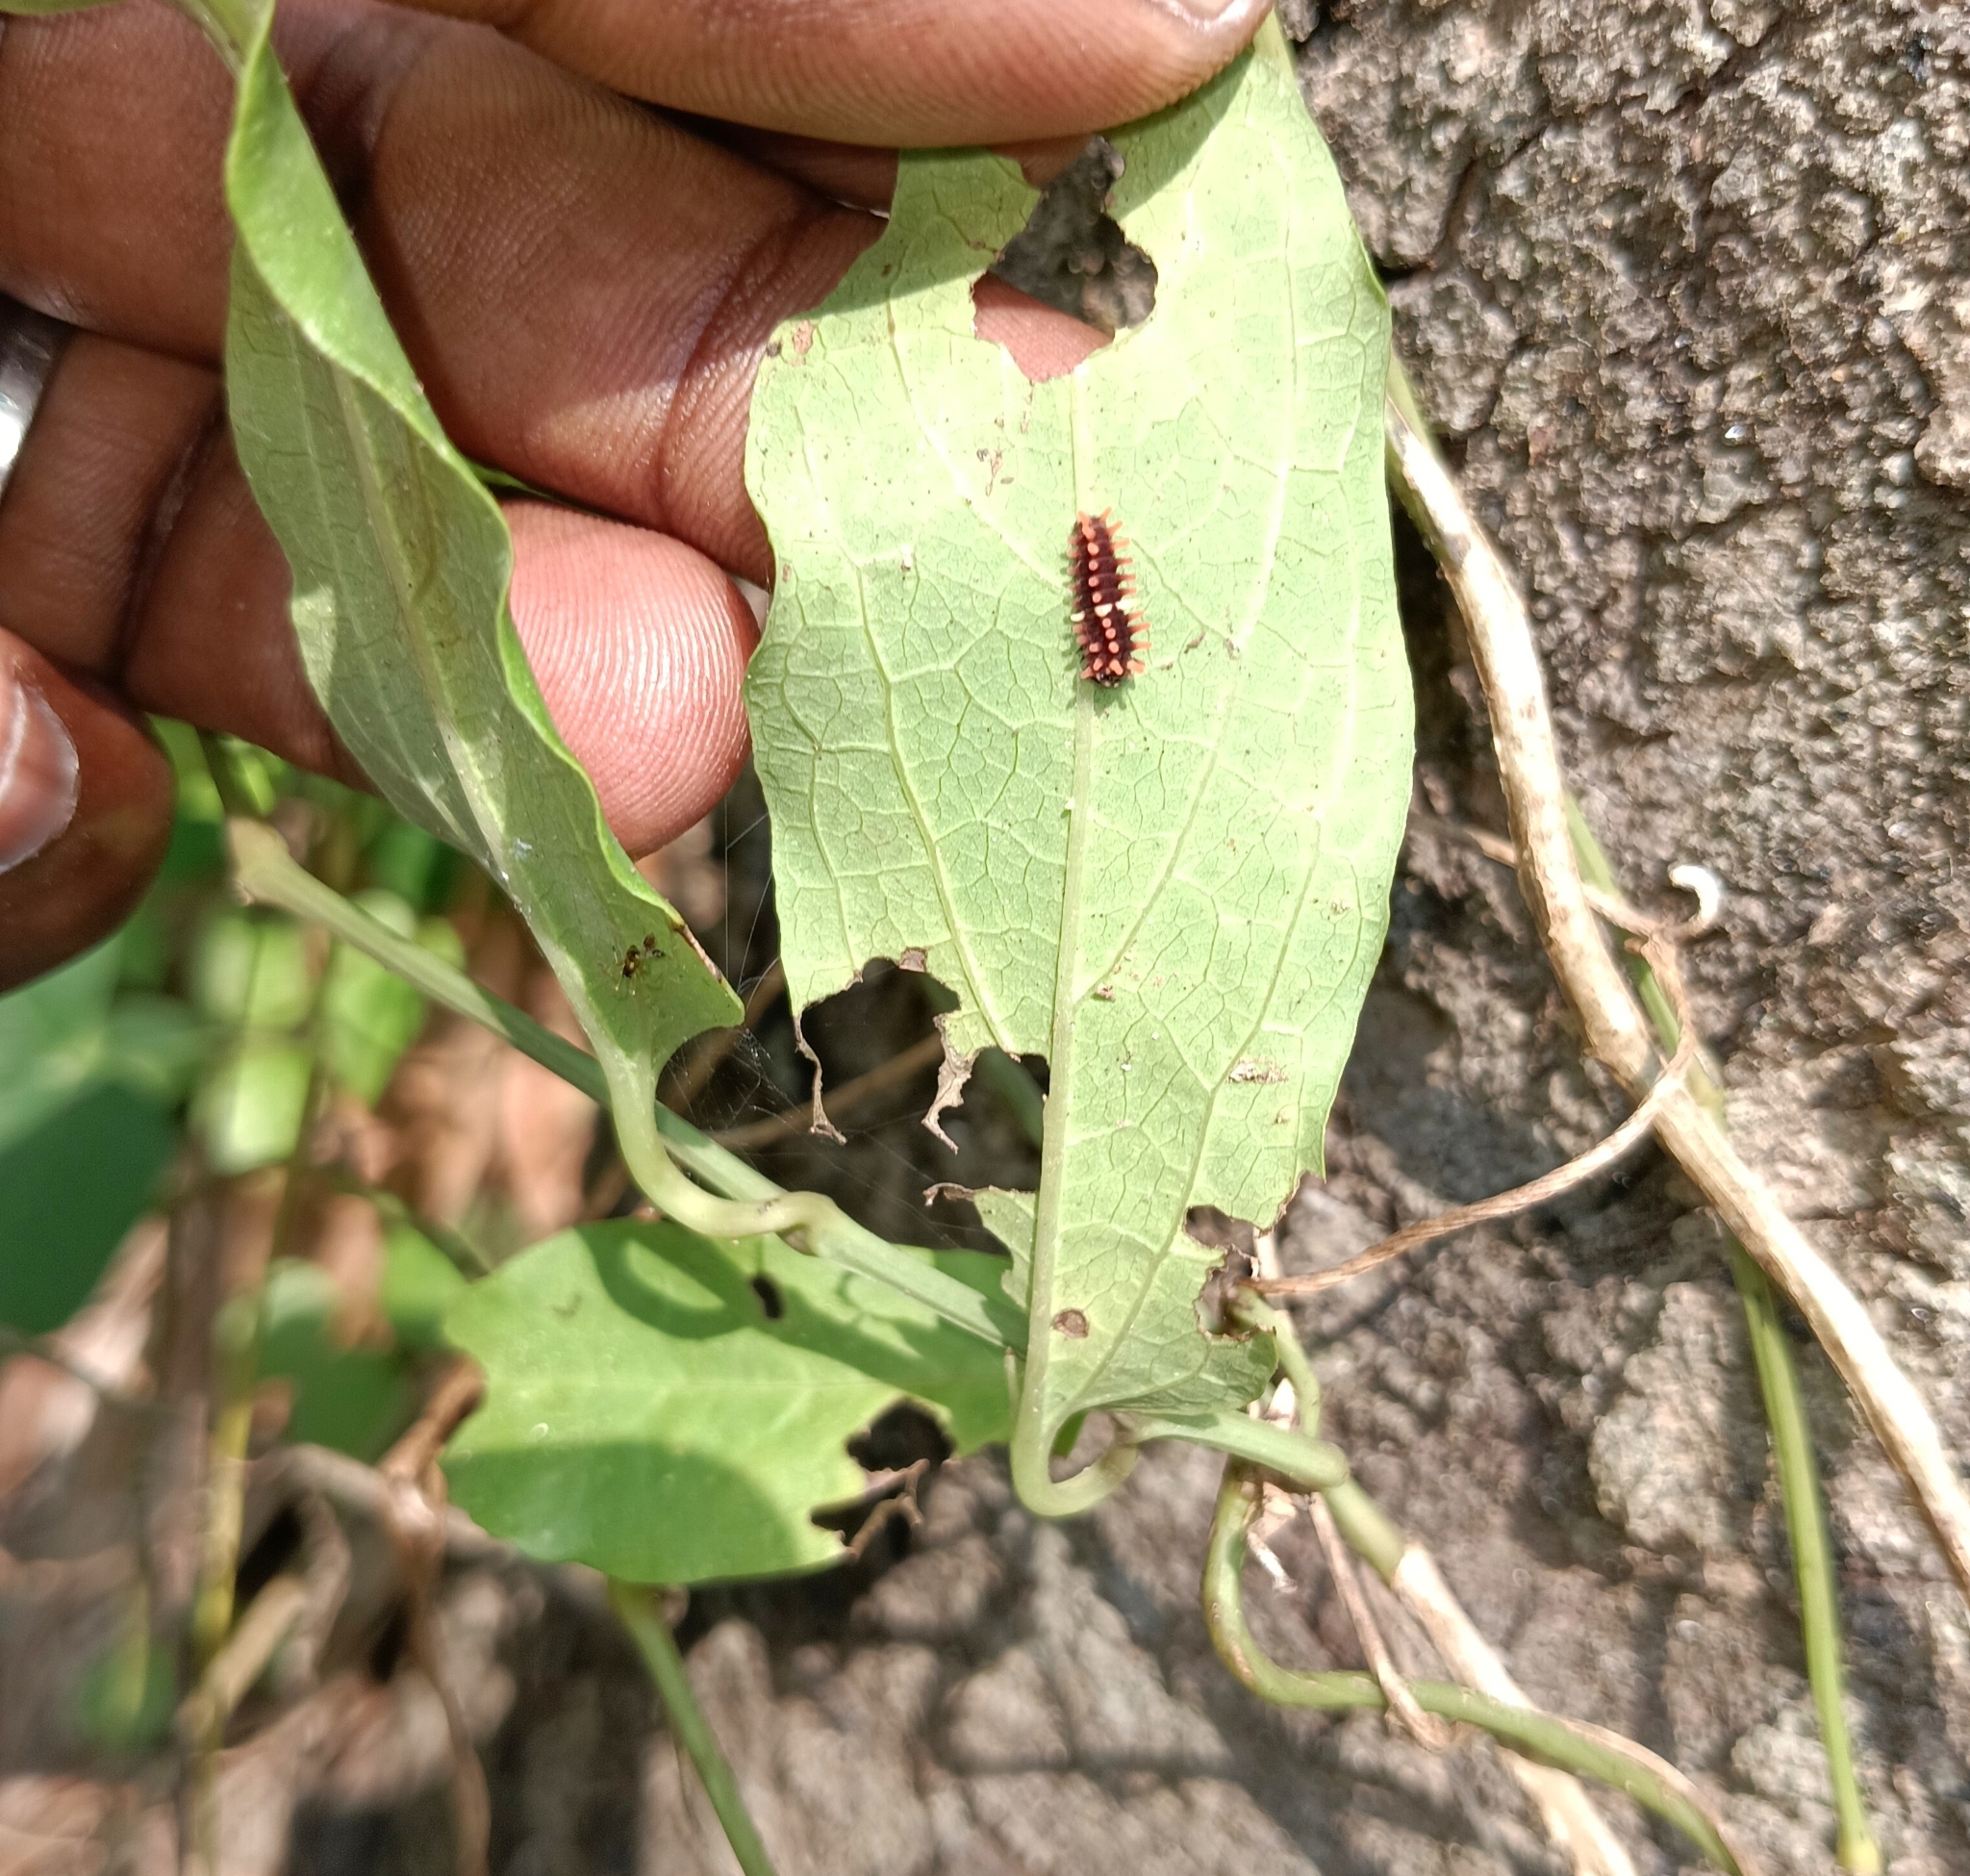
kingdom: Animalia
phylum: Arthropoda
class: Insecta
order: Lepidoptera
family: Papilionidae
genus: Pachliopta
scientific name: Pachliopta aristolochiae
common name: Common rose
